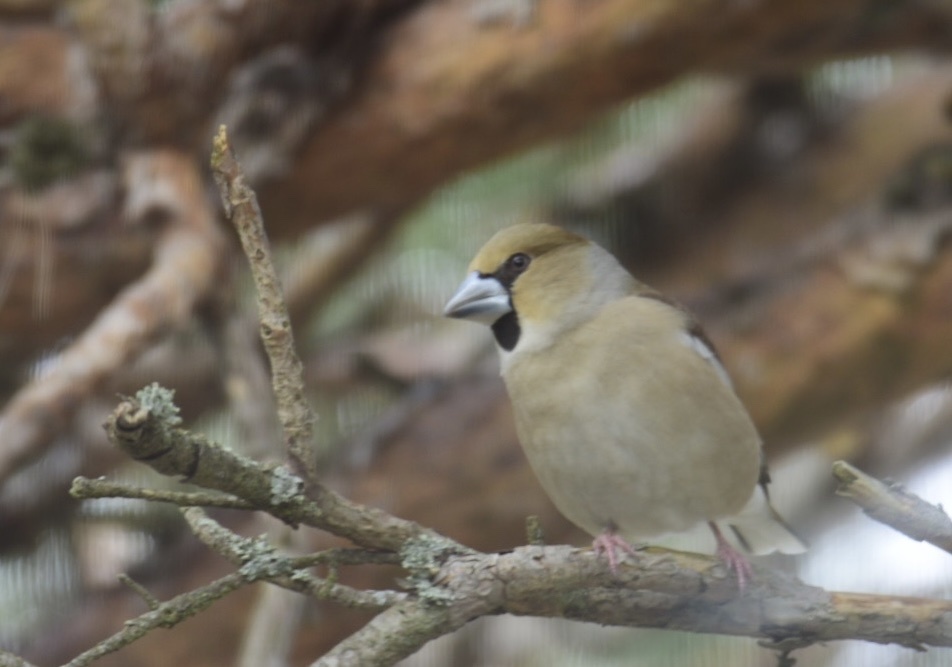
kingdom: Animalia
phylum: Chordata
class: Aves
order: Passeriformes
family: Fringillidae
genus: Coccothraustes
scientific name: Coccothraustes coccothraustes
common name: Hawfinch
